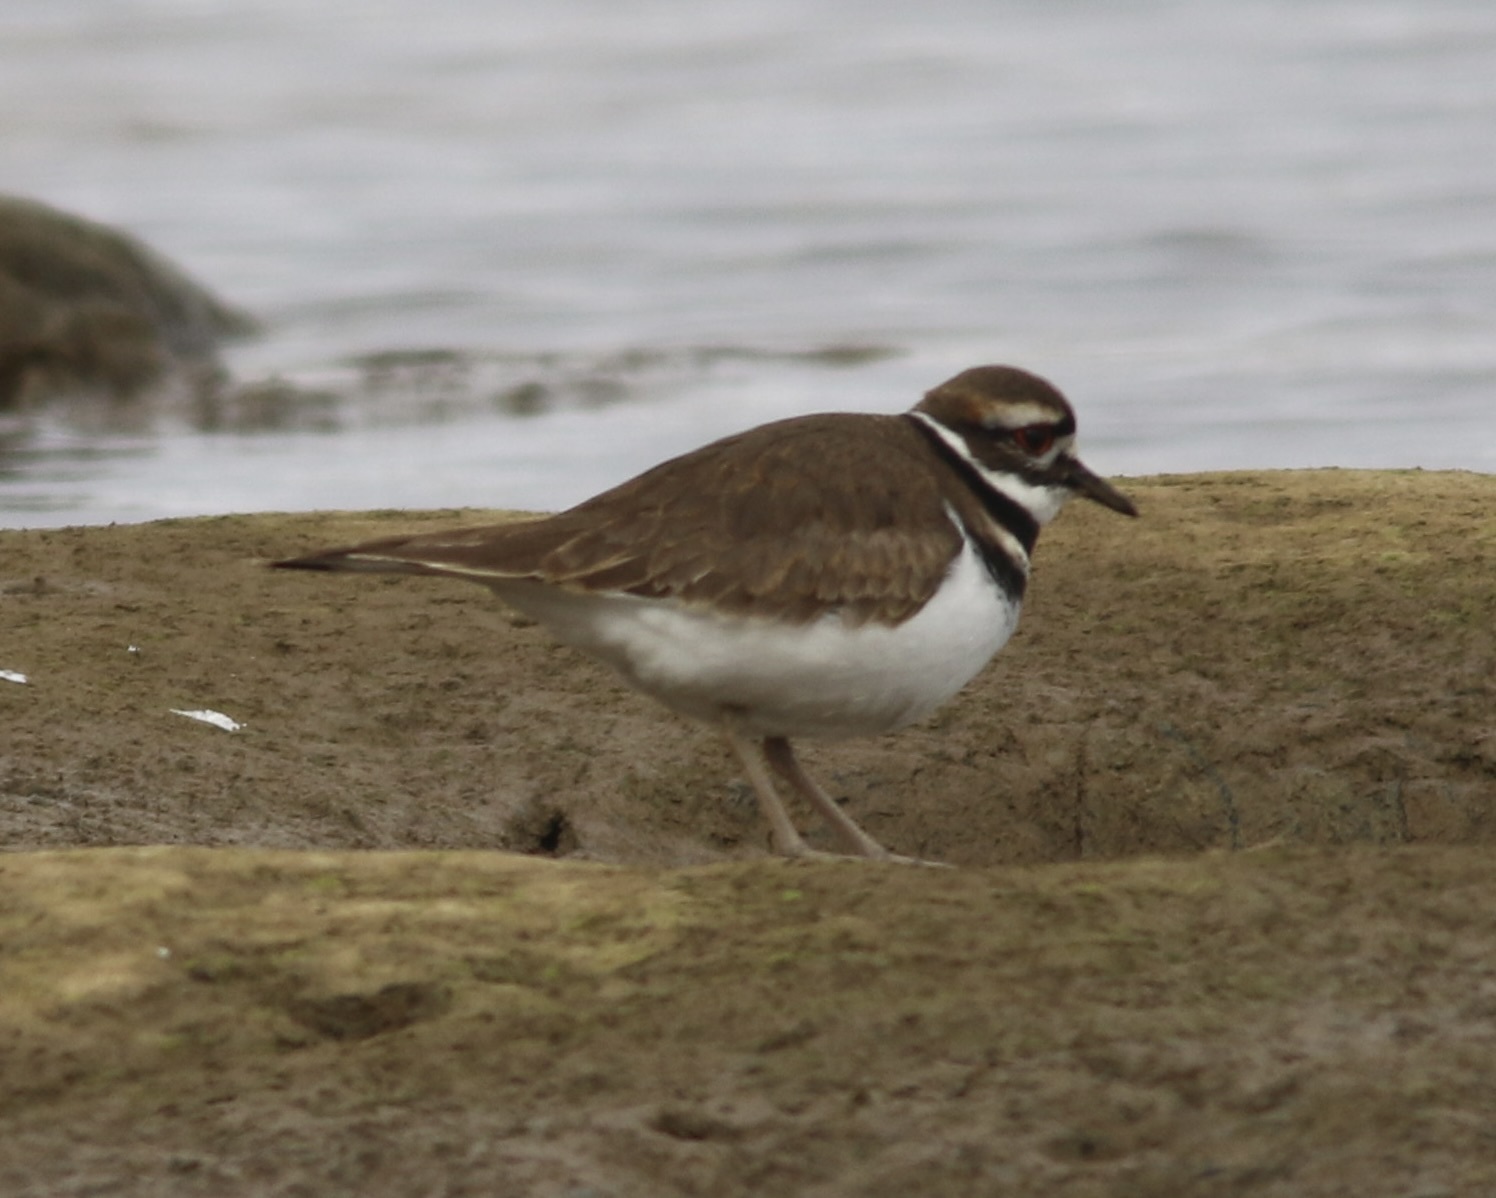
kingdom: Animalia
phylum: Chordata
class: Aves
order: Charadriiformes
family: Charadriidae
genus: Charadrius
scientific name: Charadrius vociferus
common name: Killdeer
